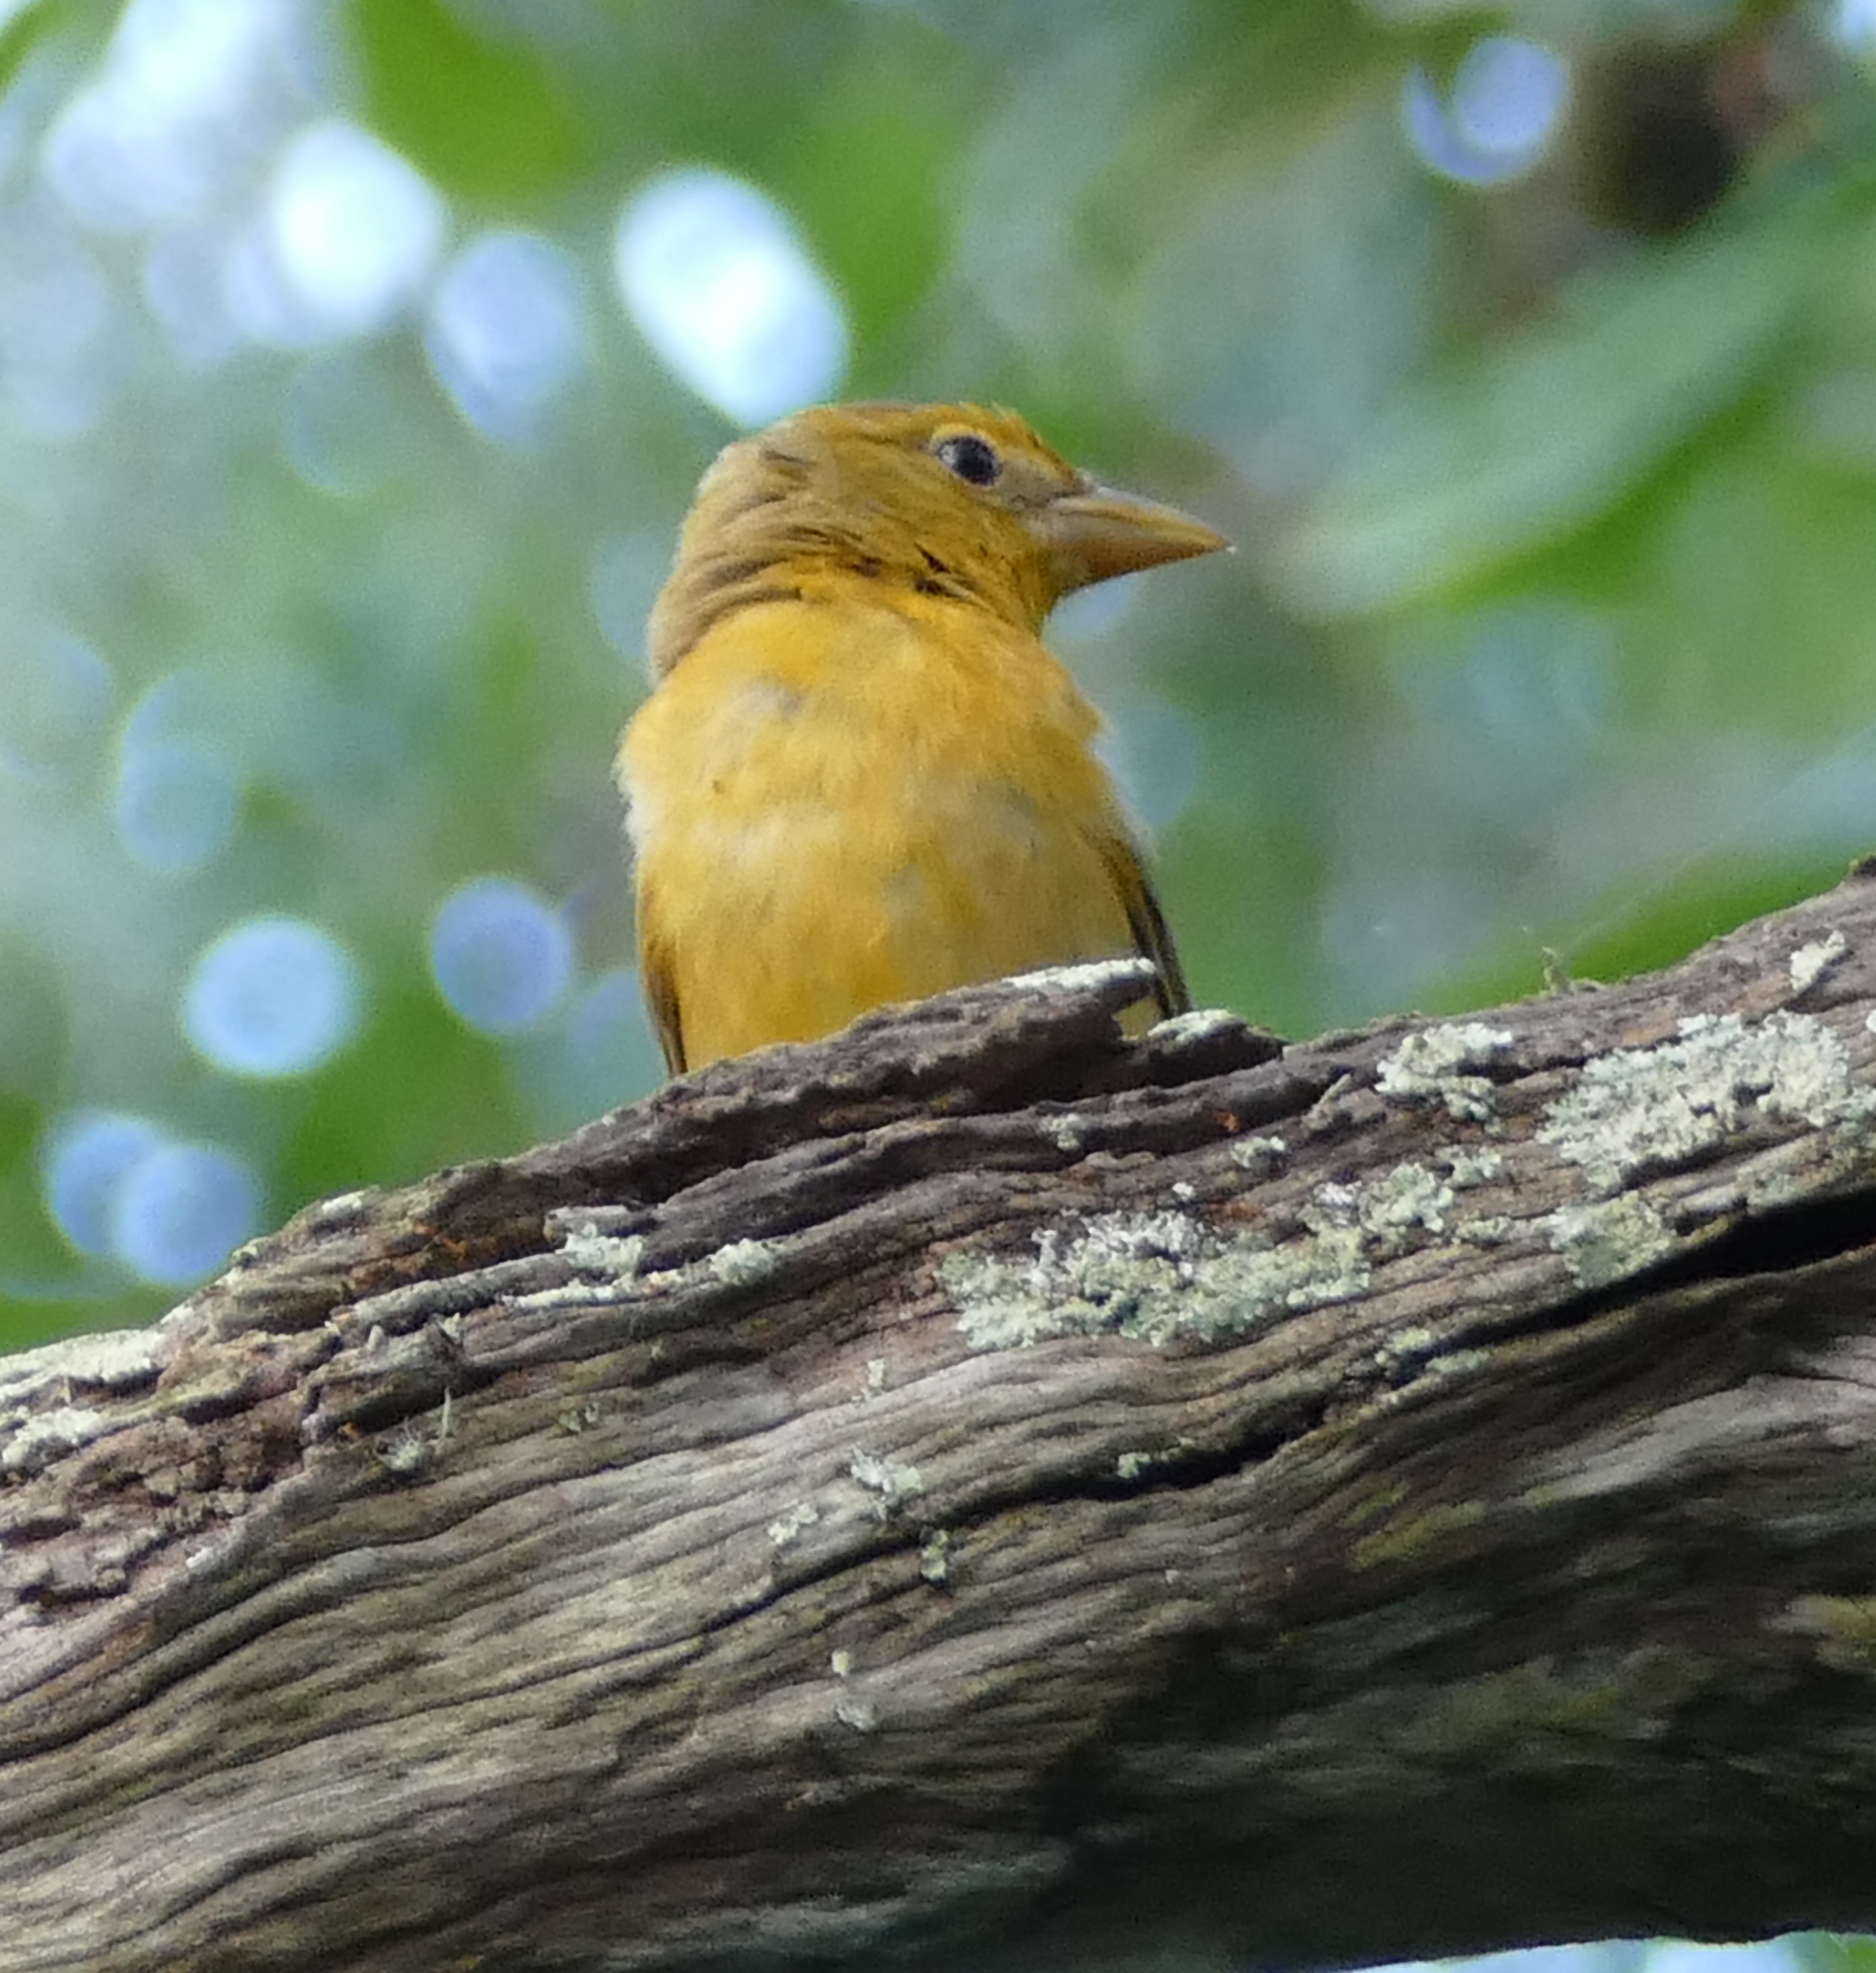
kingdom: Animalia
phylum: Chordata
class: Aves
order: Passeriformes
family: Cardinalidae
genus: Piranga
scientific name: Piranga rubra
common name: Summer tanager
